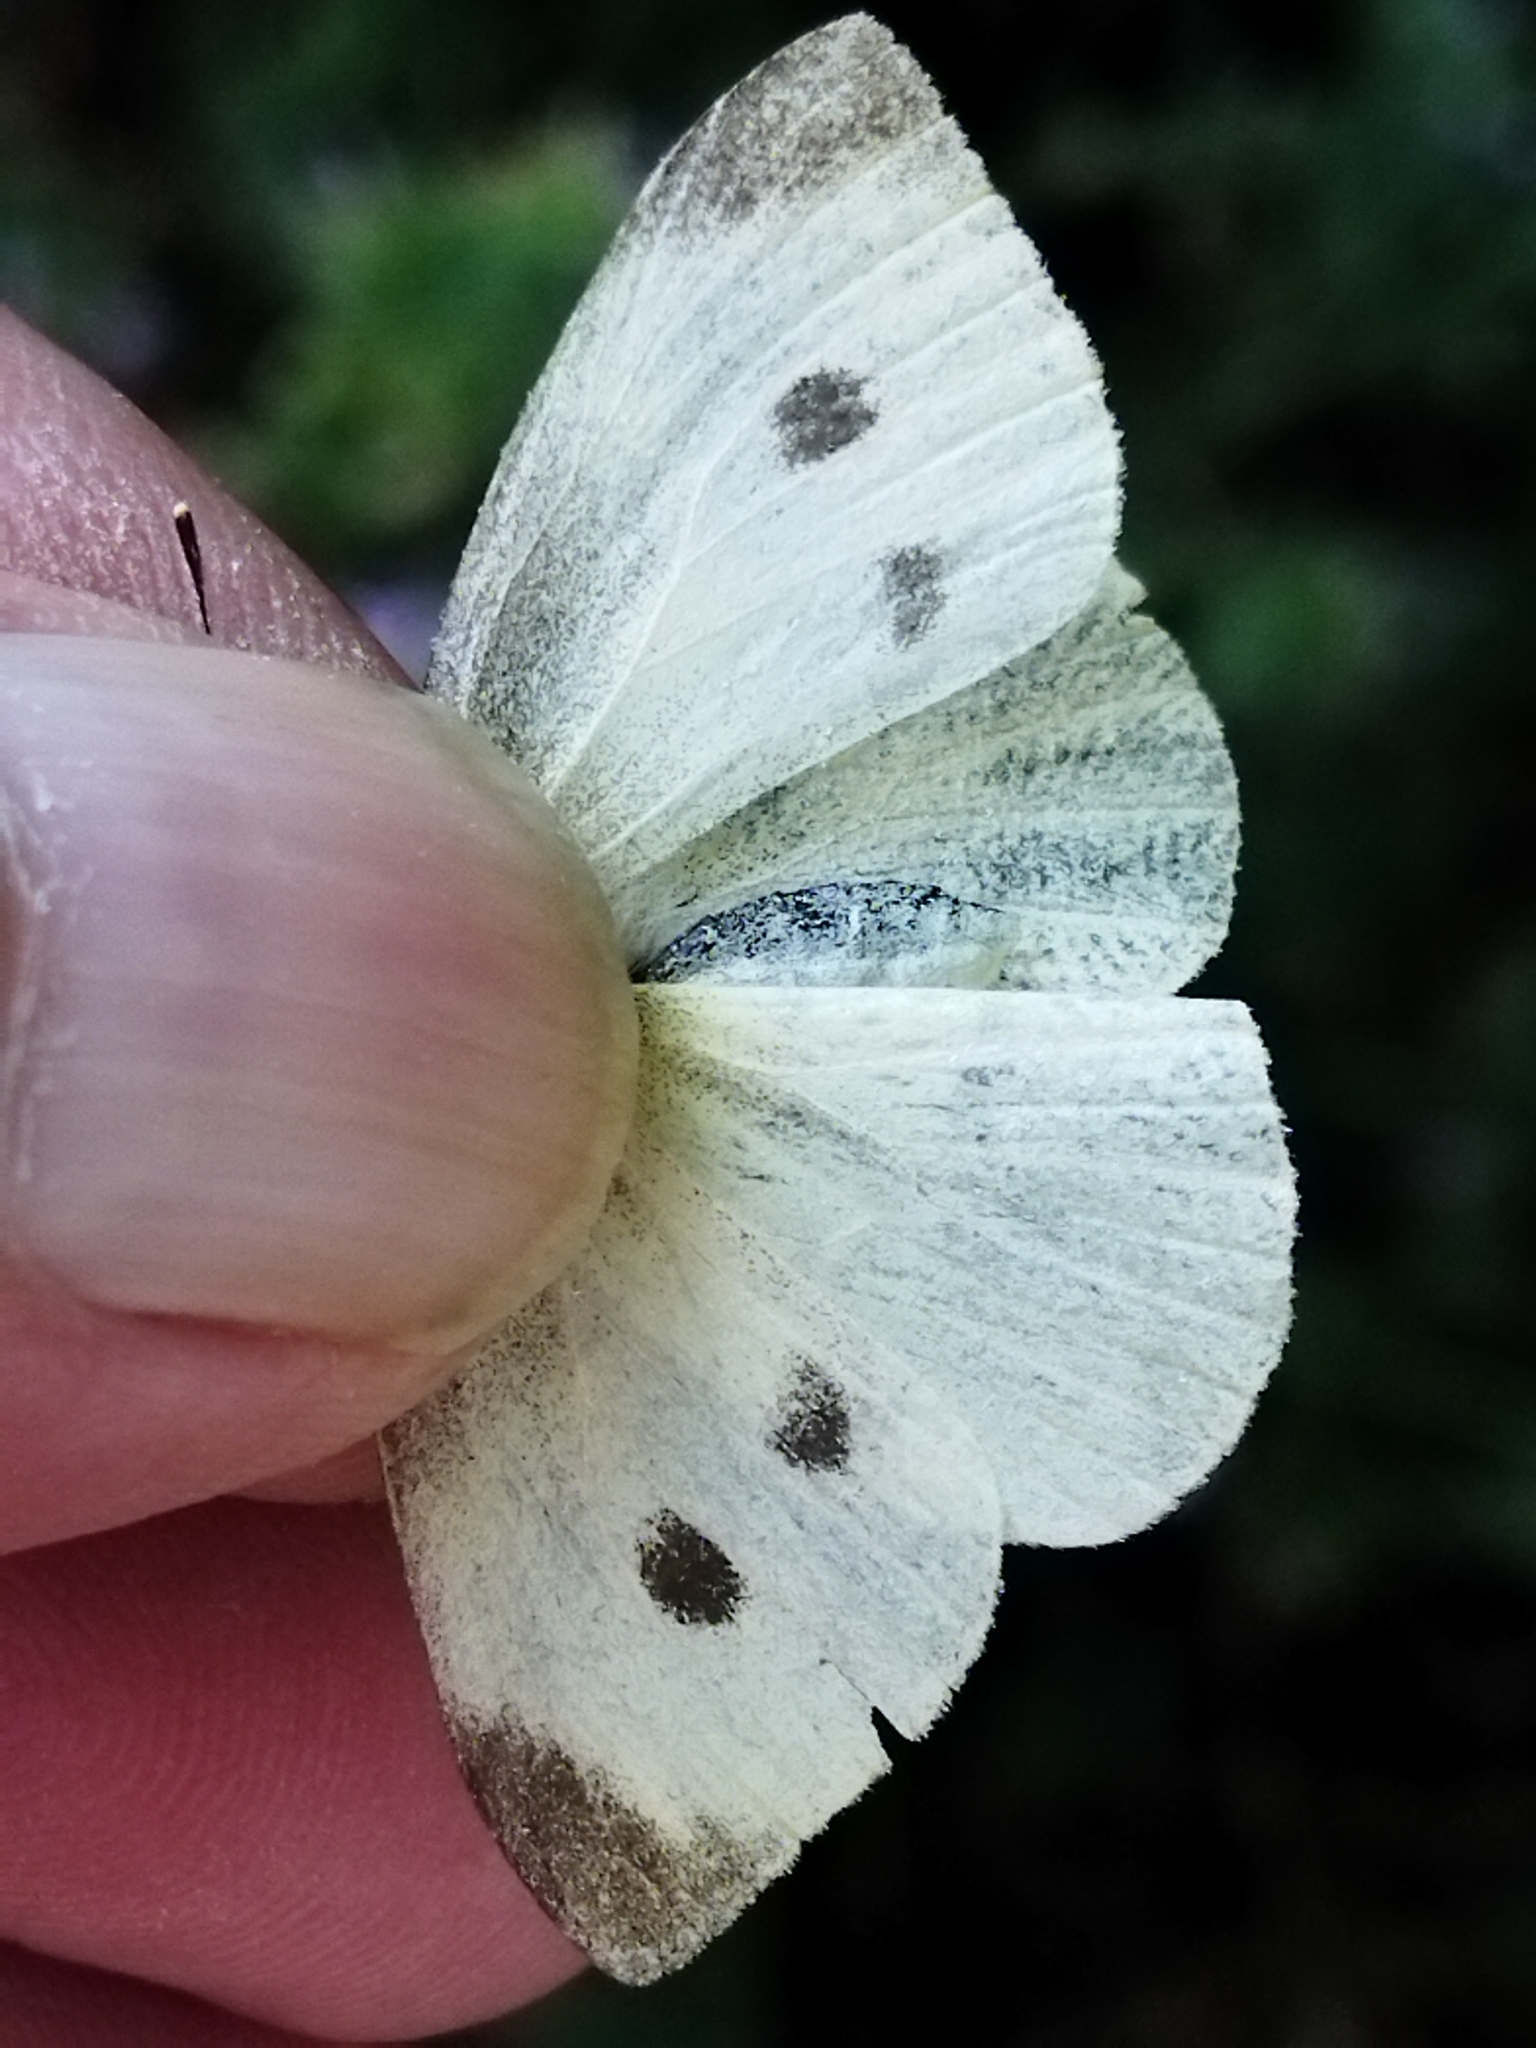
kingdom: Animalia
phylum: Arthropoda
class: Insecta
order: Lepidoptera
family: Pieridae
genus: Pieris
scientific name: Pieris rapae
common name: Small white
